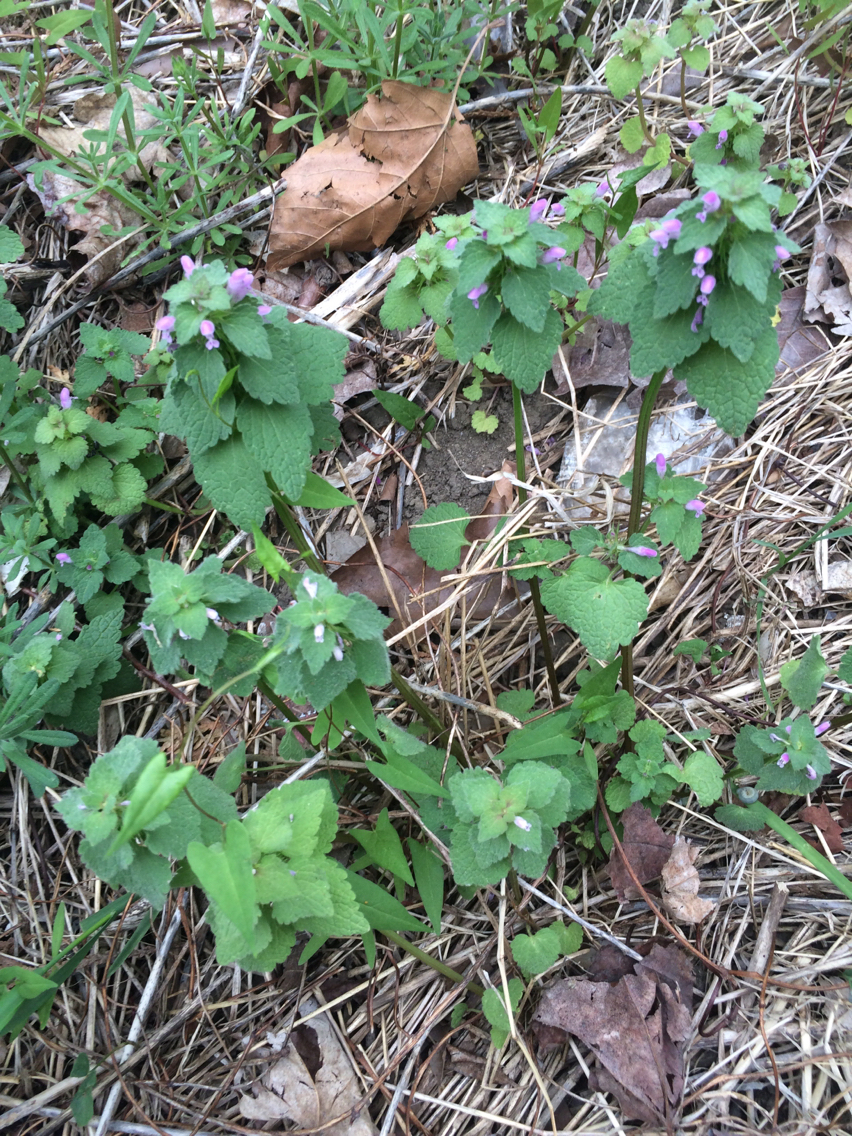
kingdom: Plantae
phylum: Tracheophyta
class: Magnoliopsida
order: Lamiales
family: Lamiaceae
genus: Lamium
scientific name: Lamium purpureum
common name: Red dead-nettle
